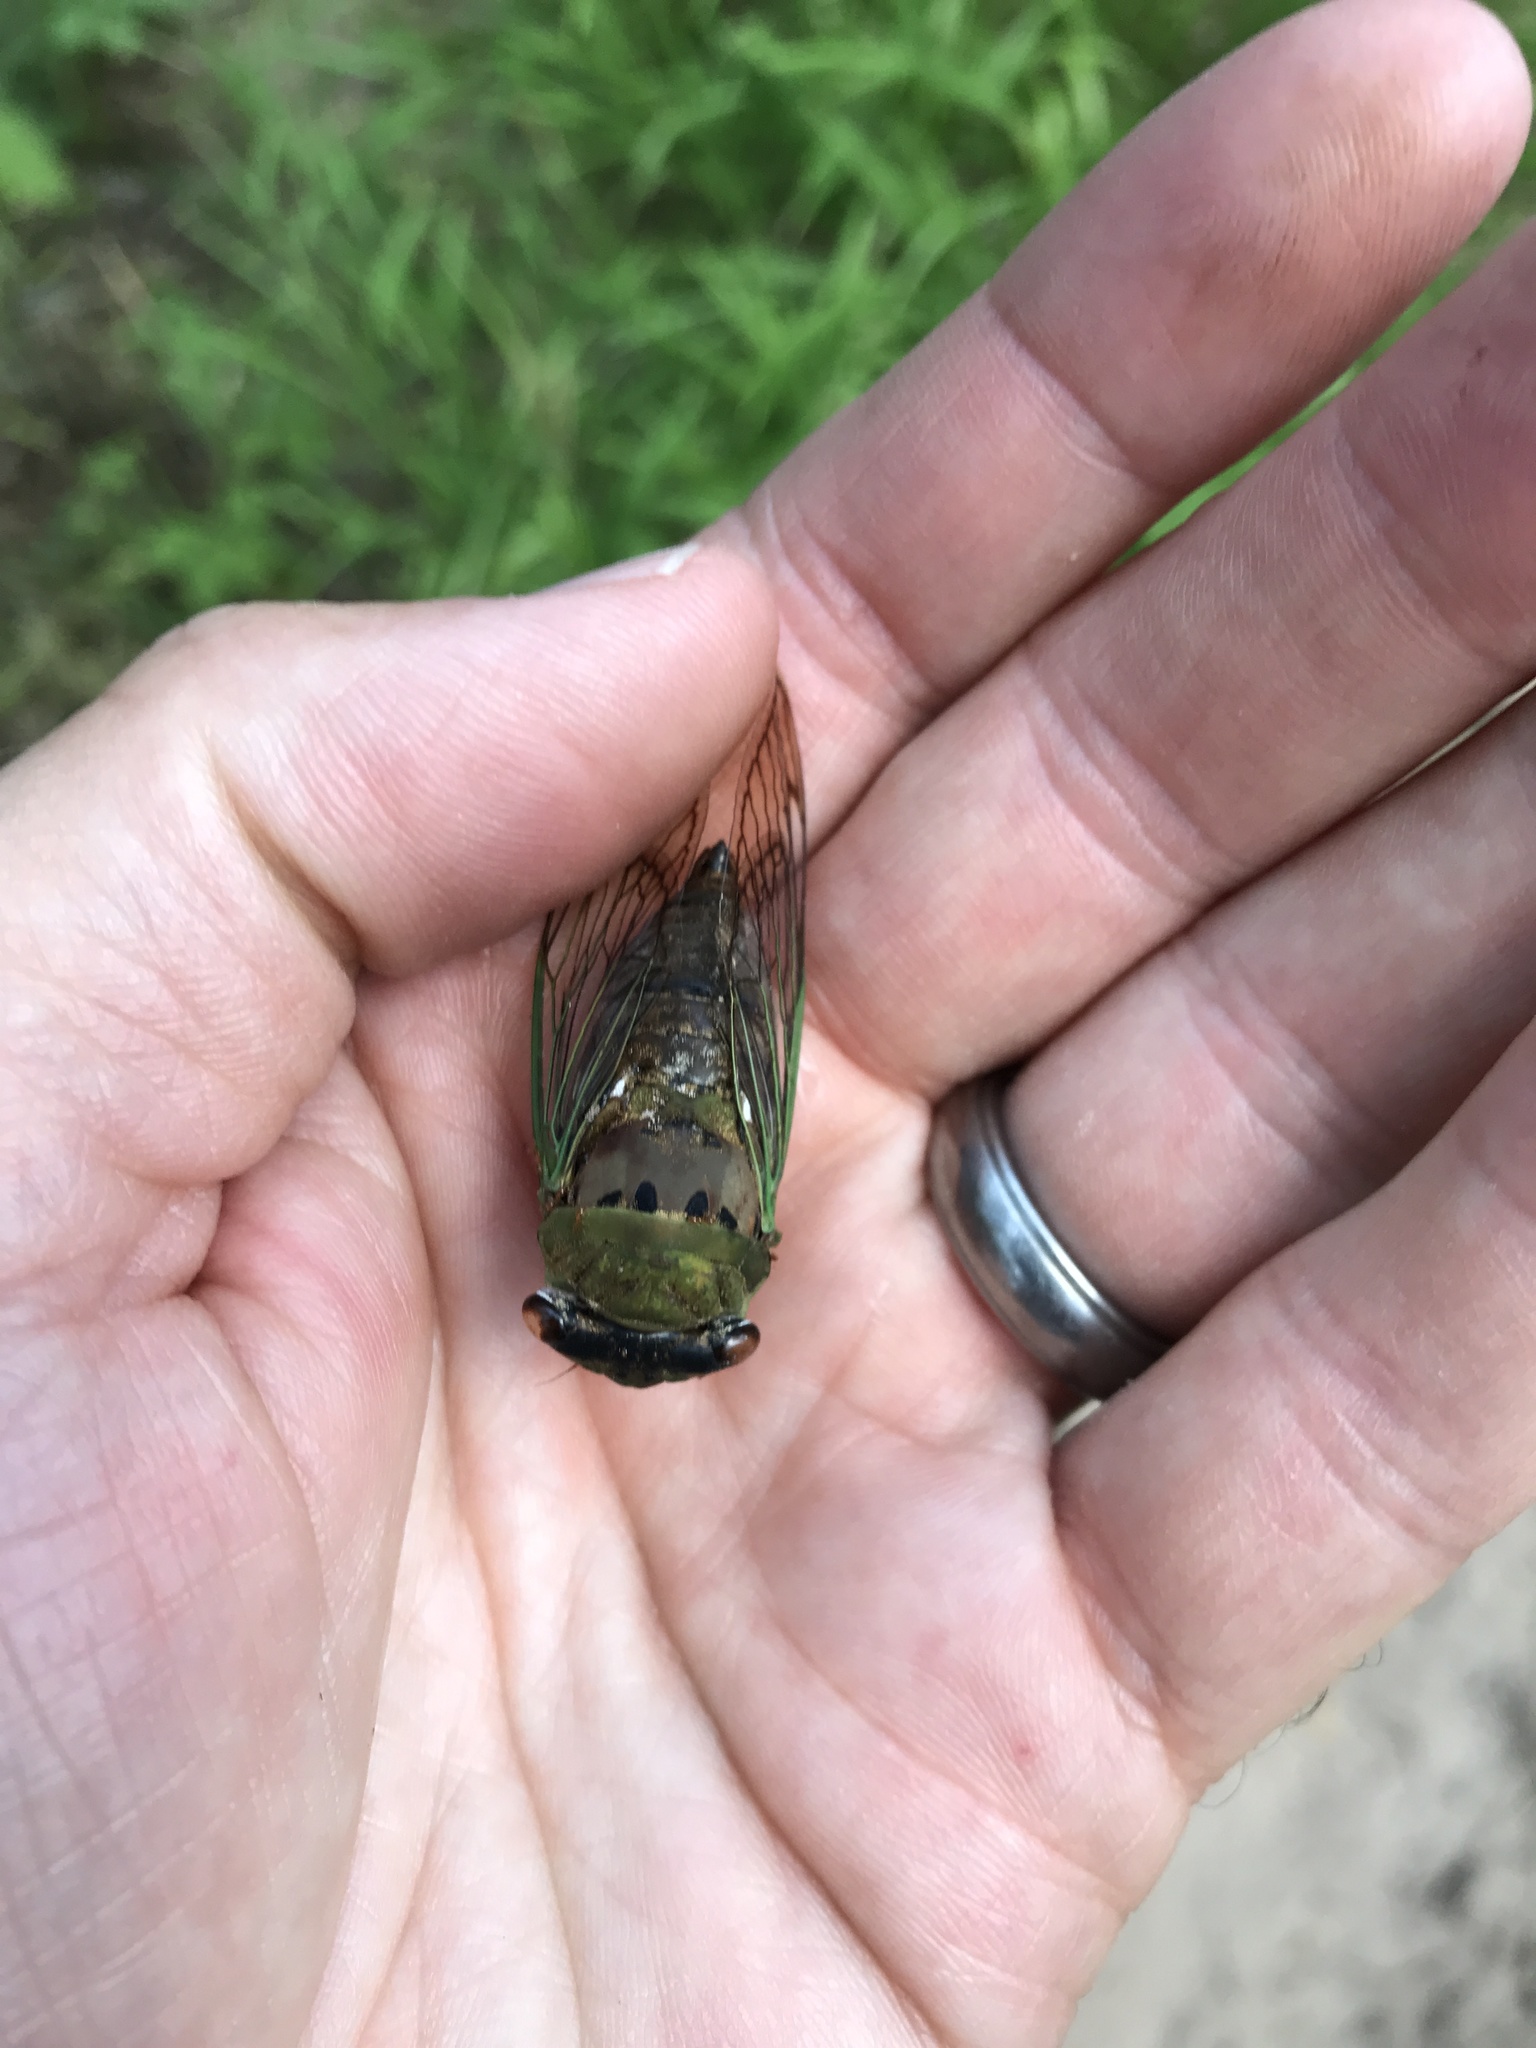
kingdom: Animalia
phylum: Arthropoda
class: Insecta
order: Hemiptera
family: Cicadidae
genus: Neotibicen
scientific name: Neotibicen superbus
